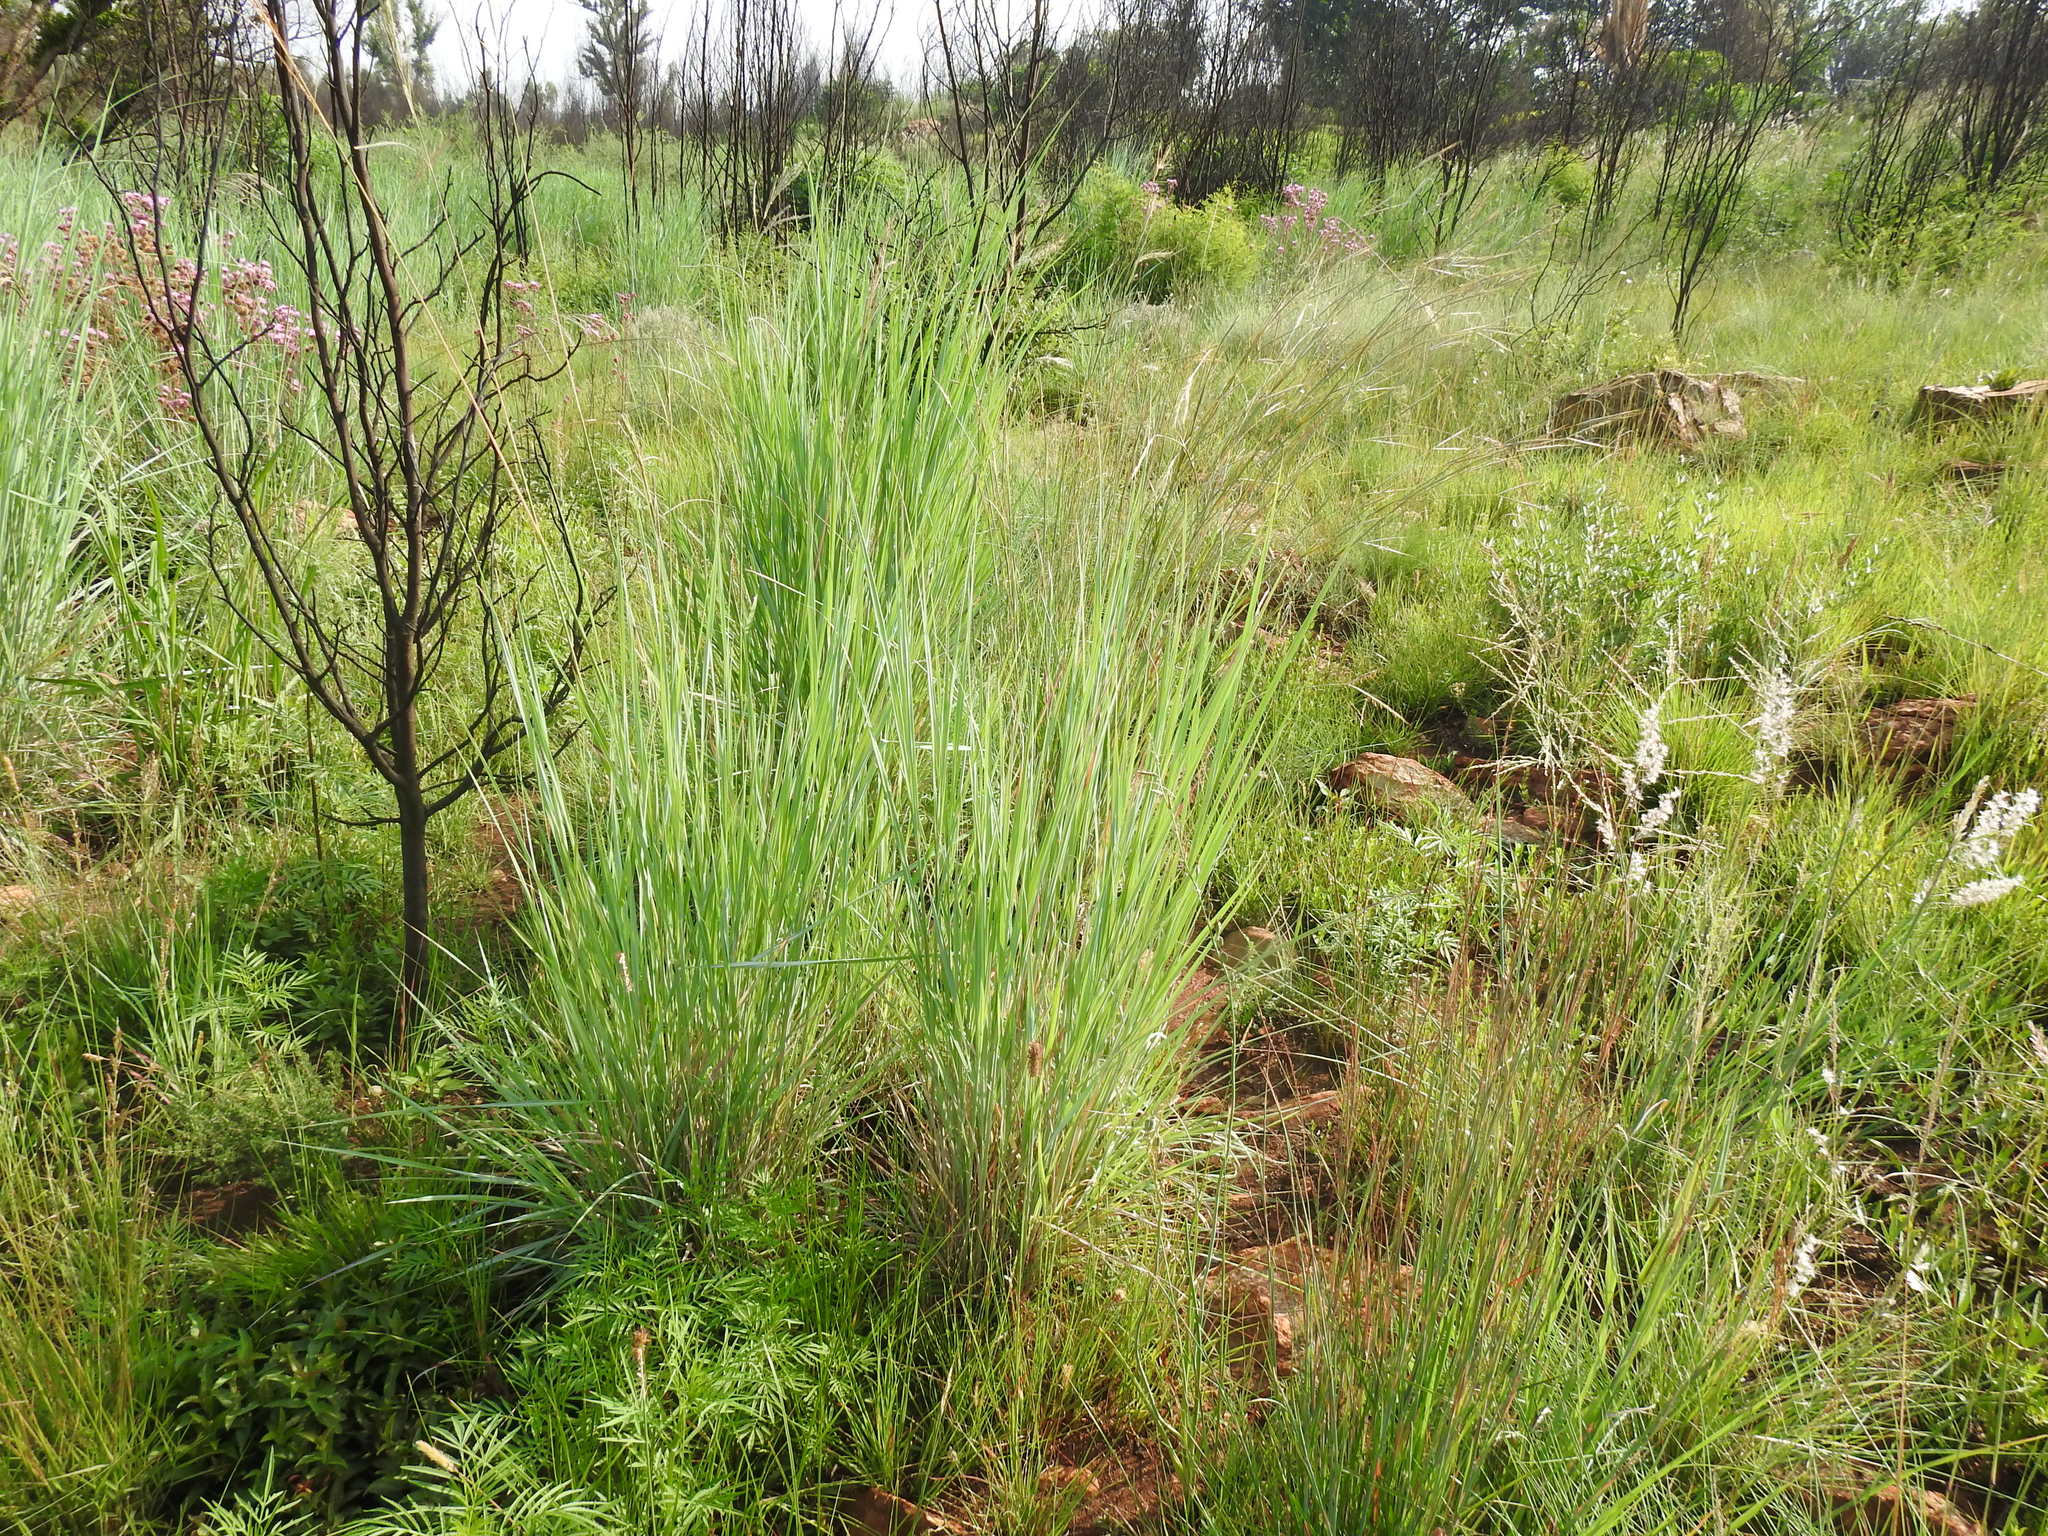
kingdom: Plantae
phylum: Tracheophyta
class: Liliopsida
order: Poales
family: Poaceae
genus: Diheteropogon
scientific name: Diheteropogon amplectens
